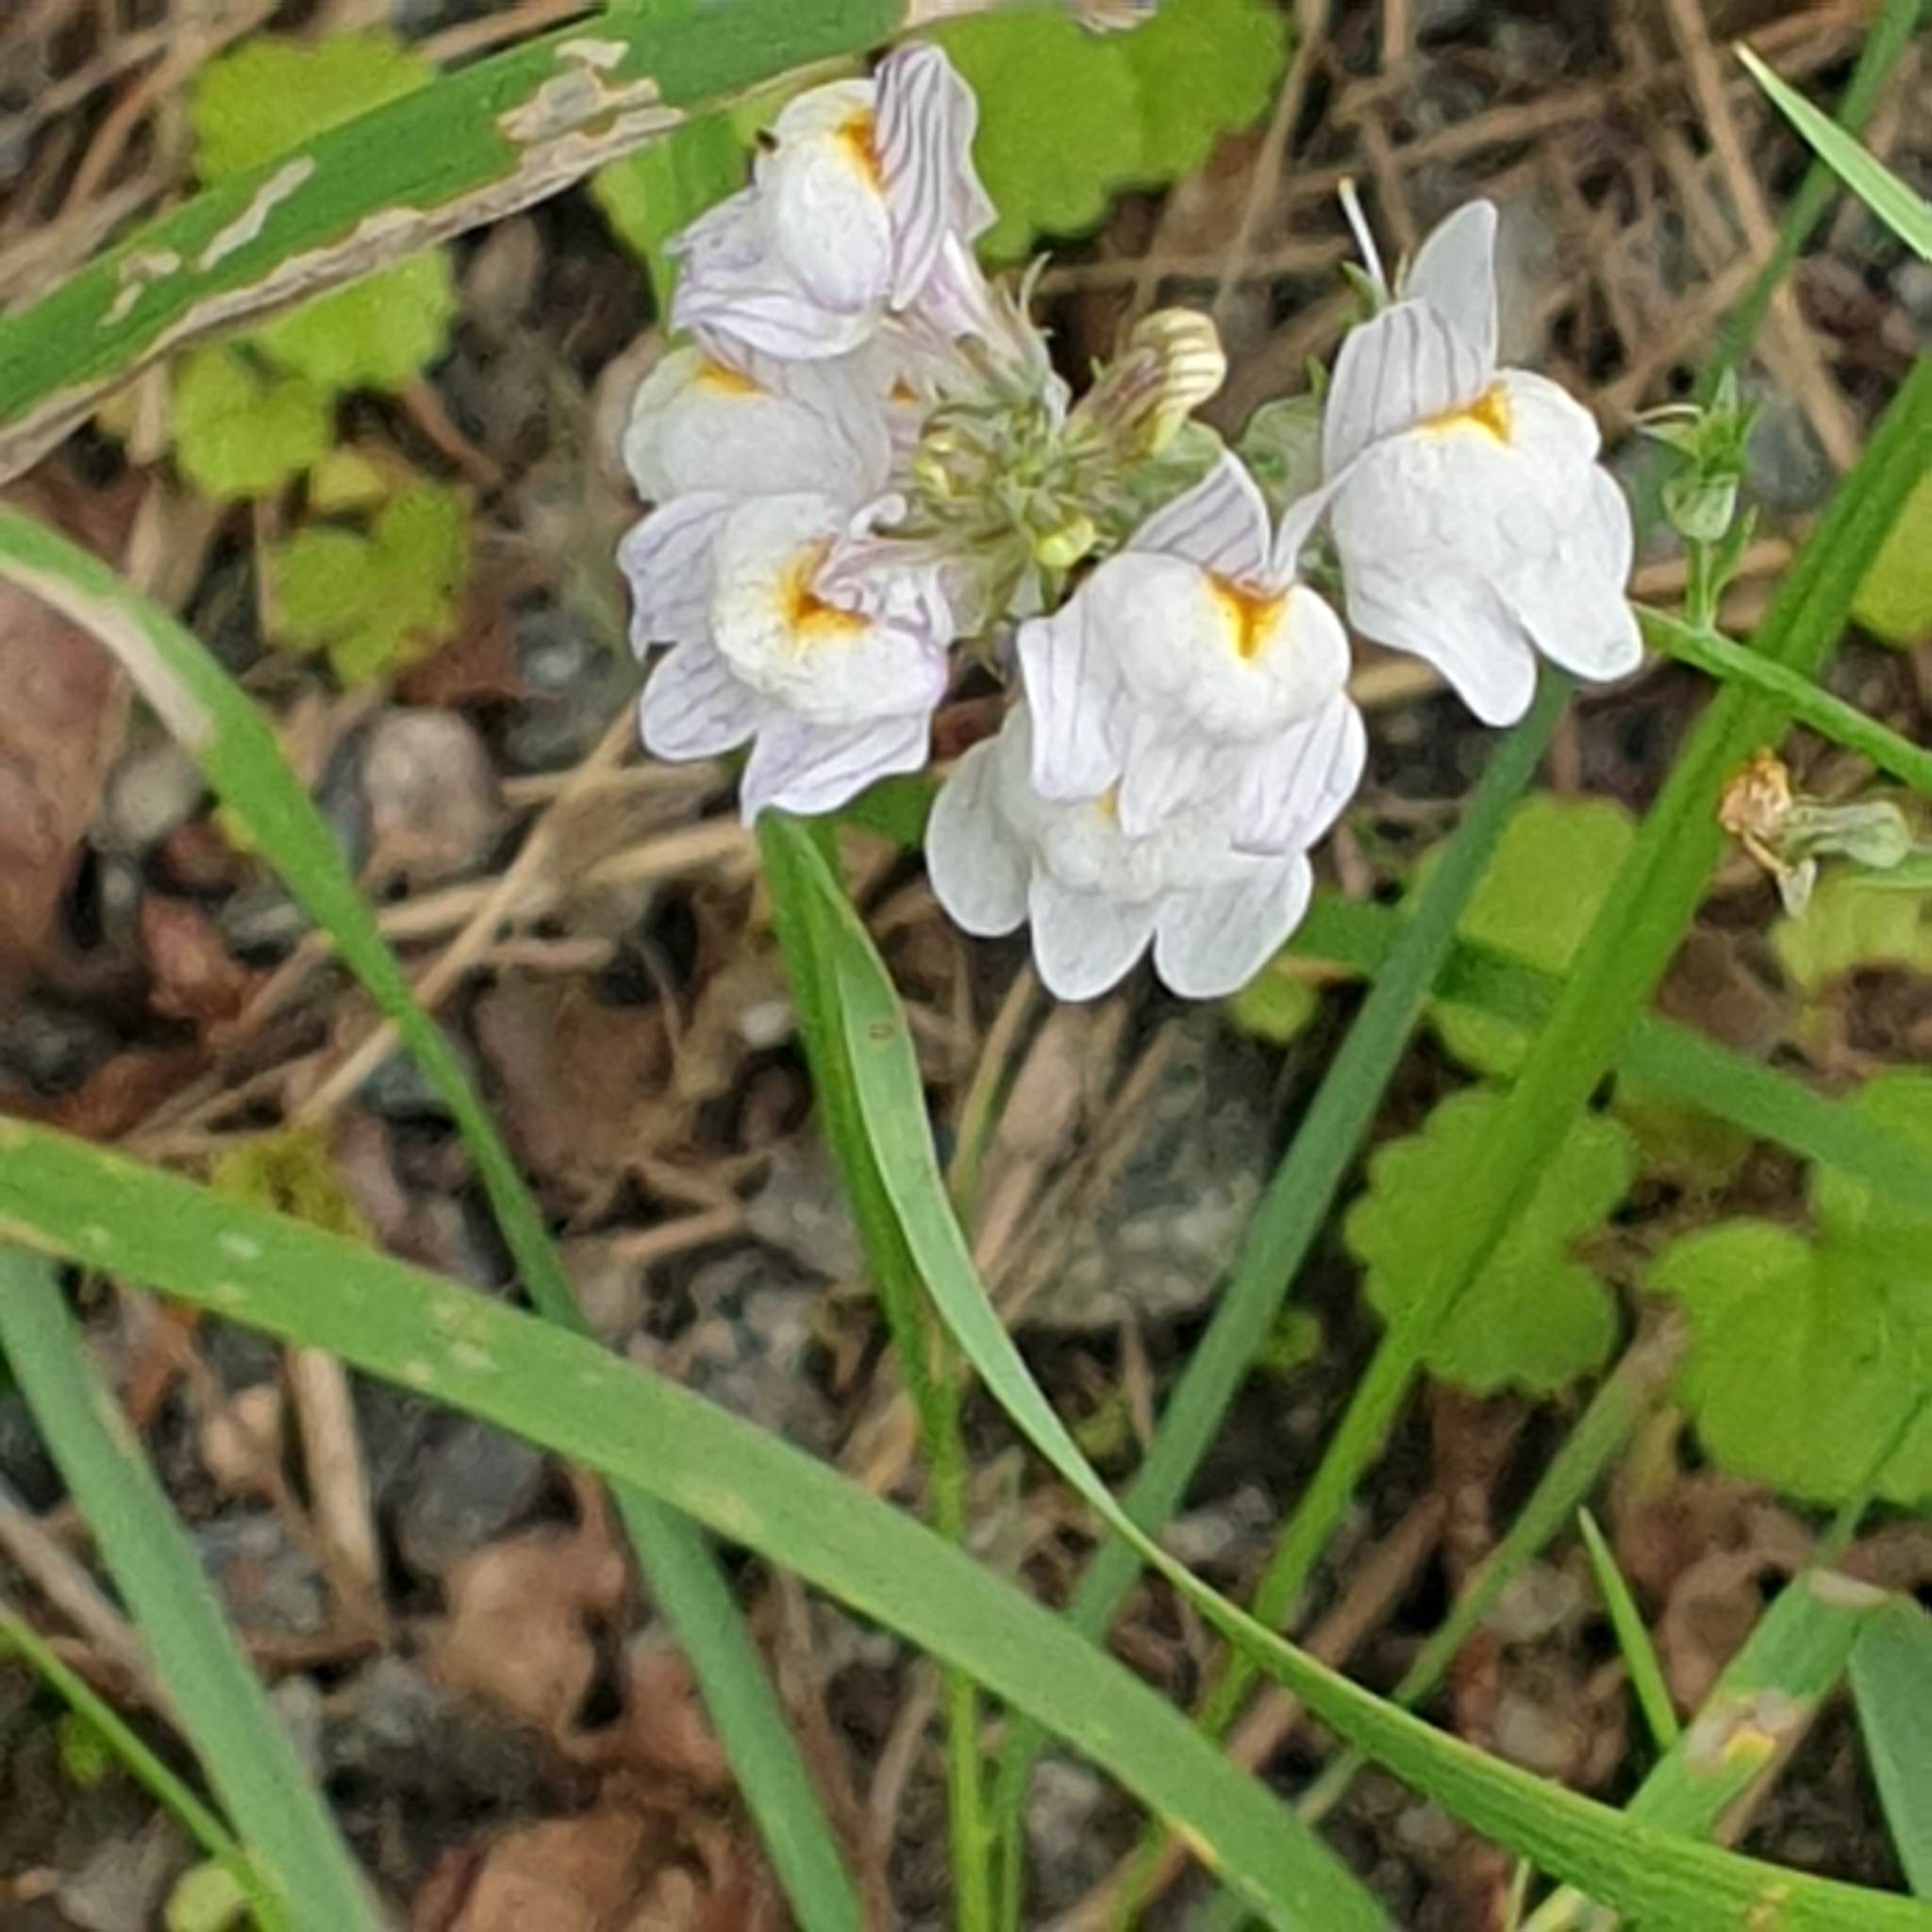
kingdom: Plantae
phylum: Tracheophyta
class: Magnoliopsida
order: Lamiales
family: Plantaginaceae
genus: Linaria
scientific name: Linaria repens
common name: Pale toadflax
